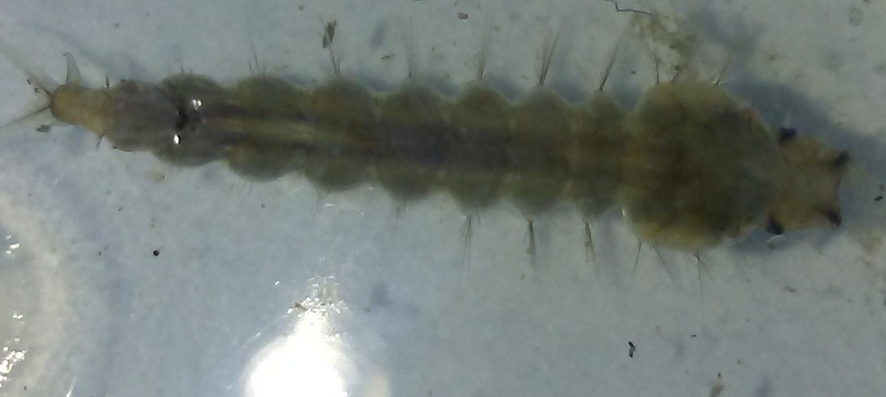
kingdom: Animalia
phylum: Arthropoda
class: Insecta
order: Diptera
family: Culicidae
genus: Psorophora
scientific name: Psorophora howardii
